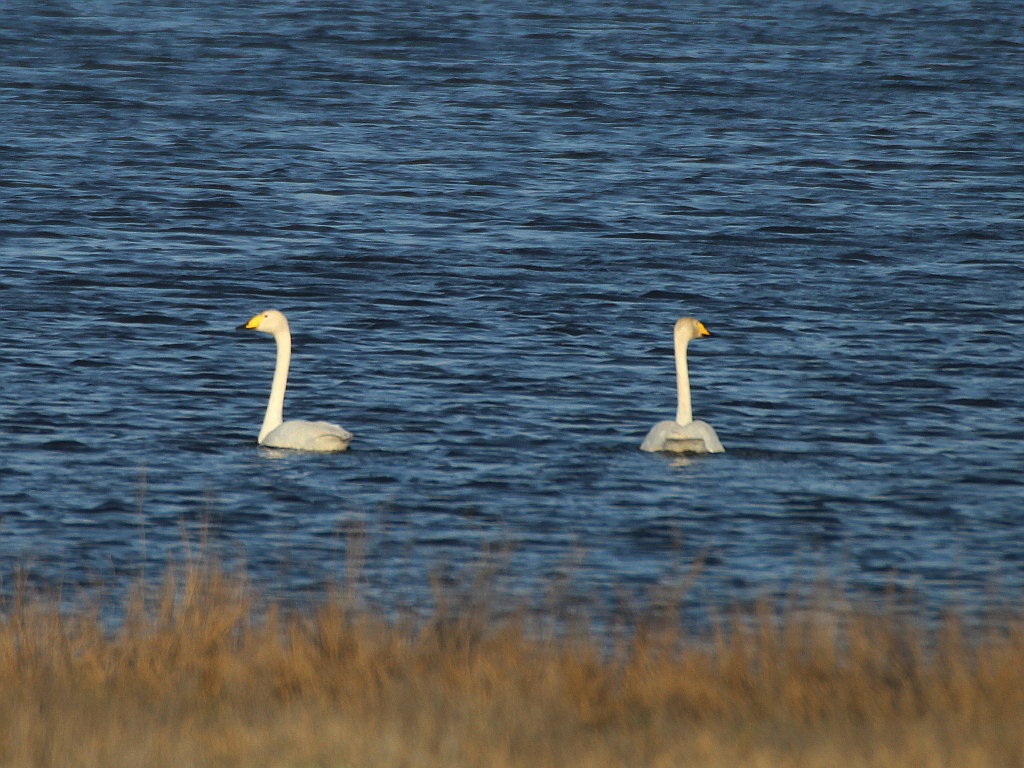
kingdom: Animalia
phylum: Chordata
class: Aves
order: Anseriformes
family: Anatidae
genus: Cygnus
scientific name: Cygnus cygnus
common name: Whooper swan
